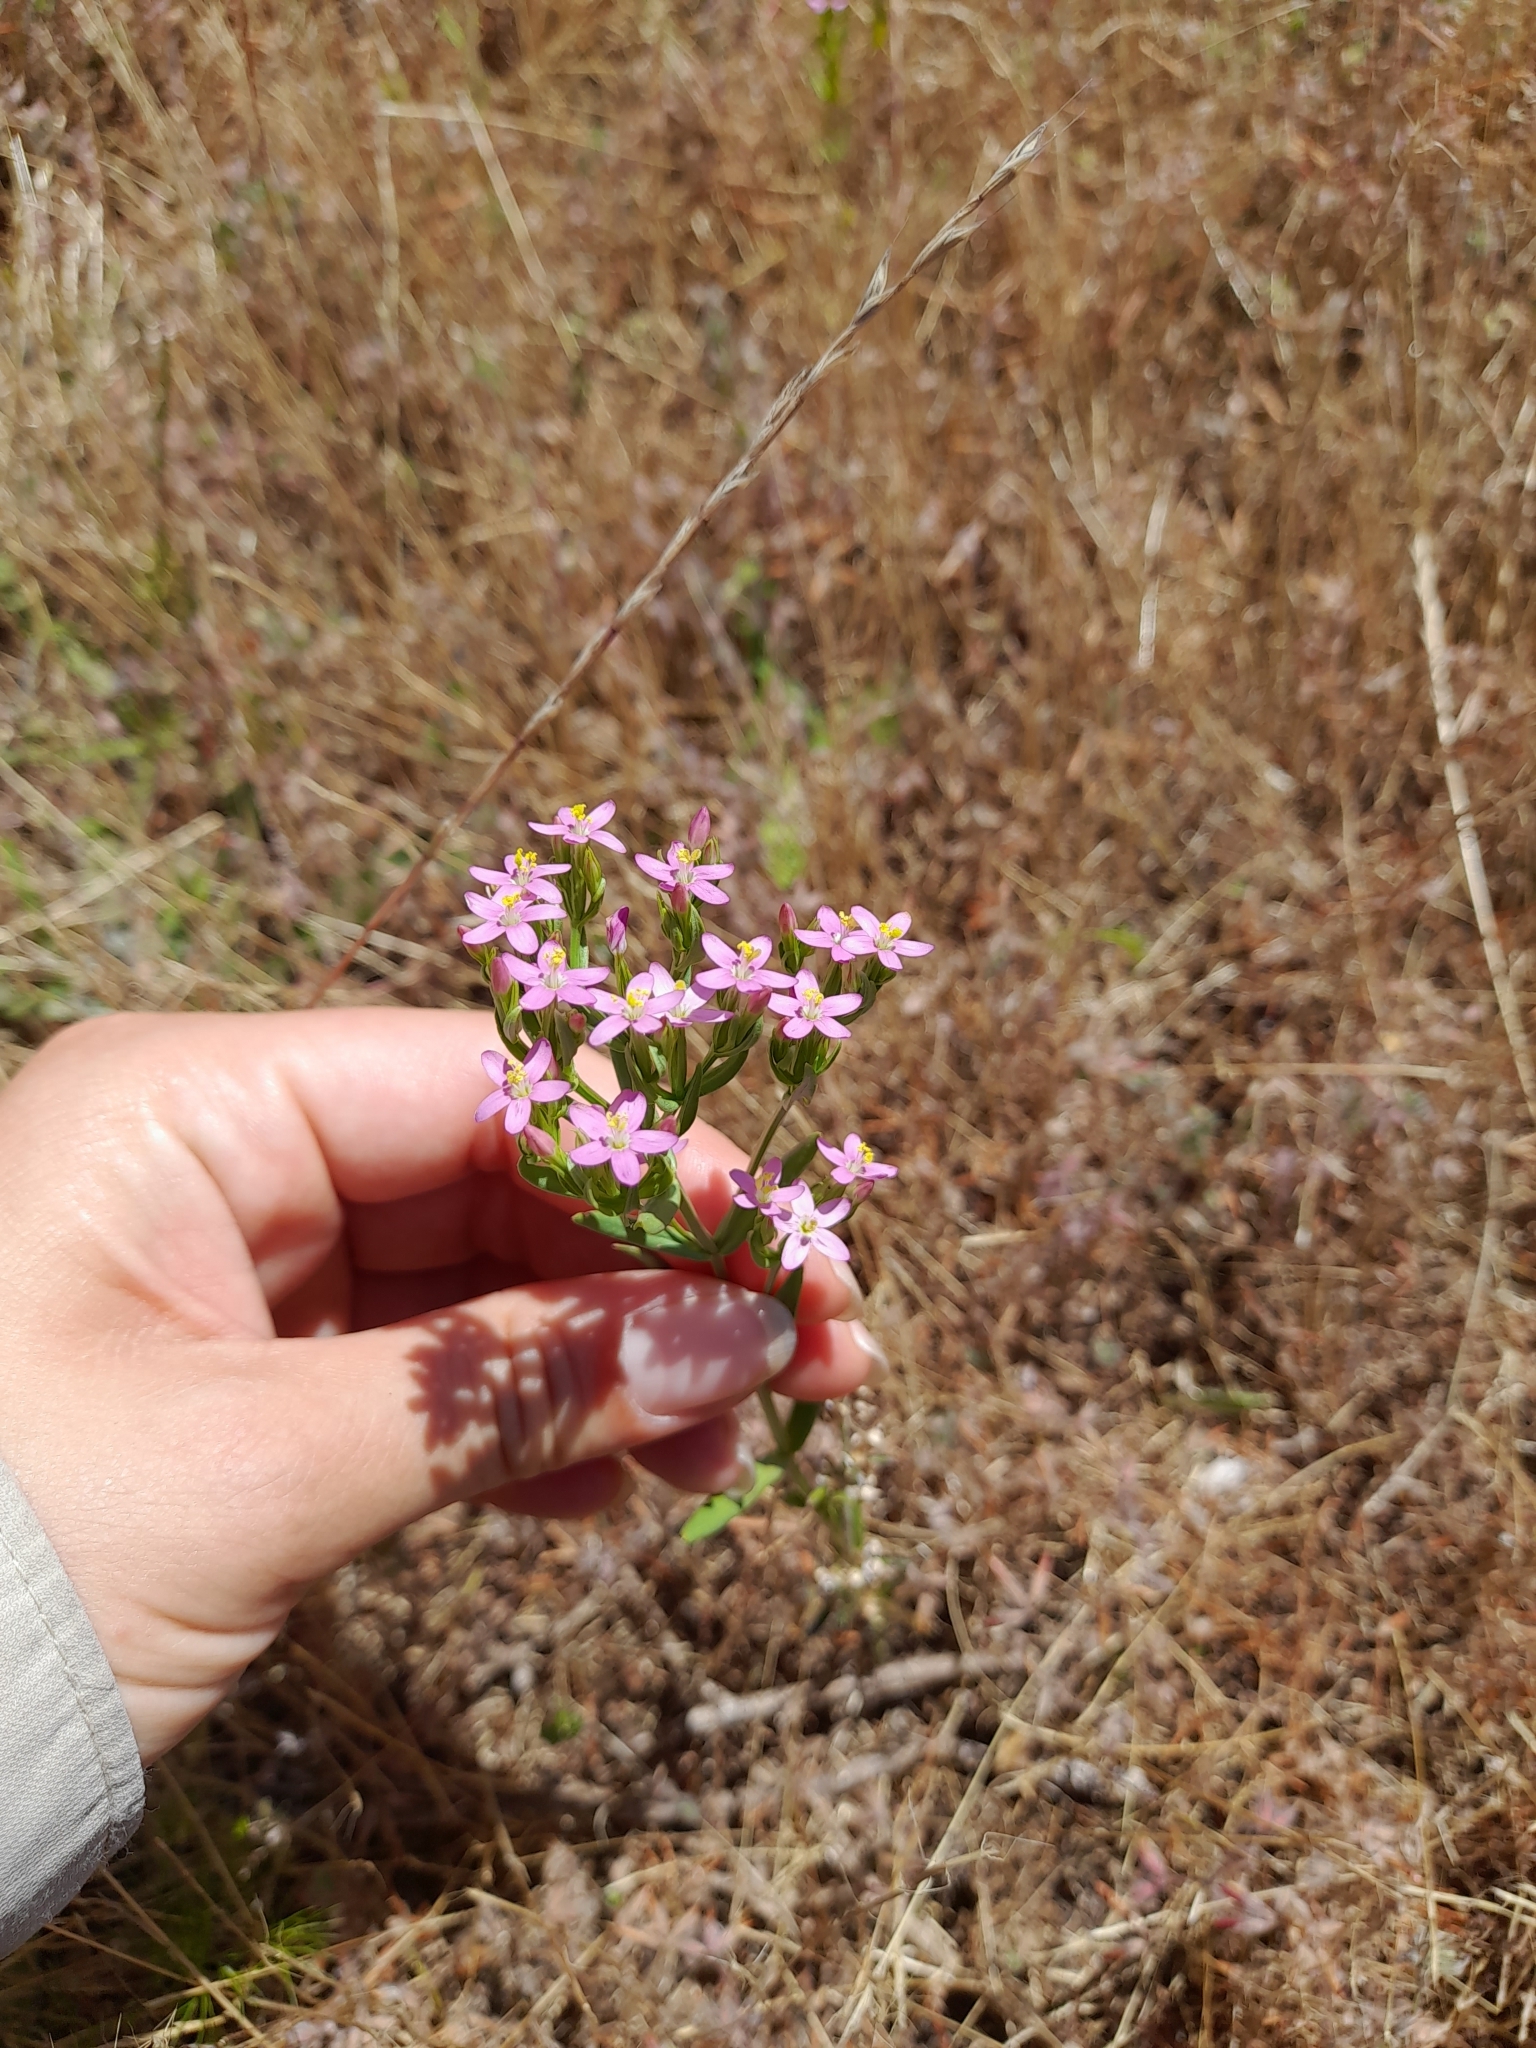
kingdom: Plantae
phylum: Tracheophyta
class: Magnoliopsida
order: Gentianales
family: Gentianaceae
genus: Centaurium
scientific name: Centaurium pulchellum
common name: Lesser centaury
